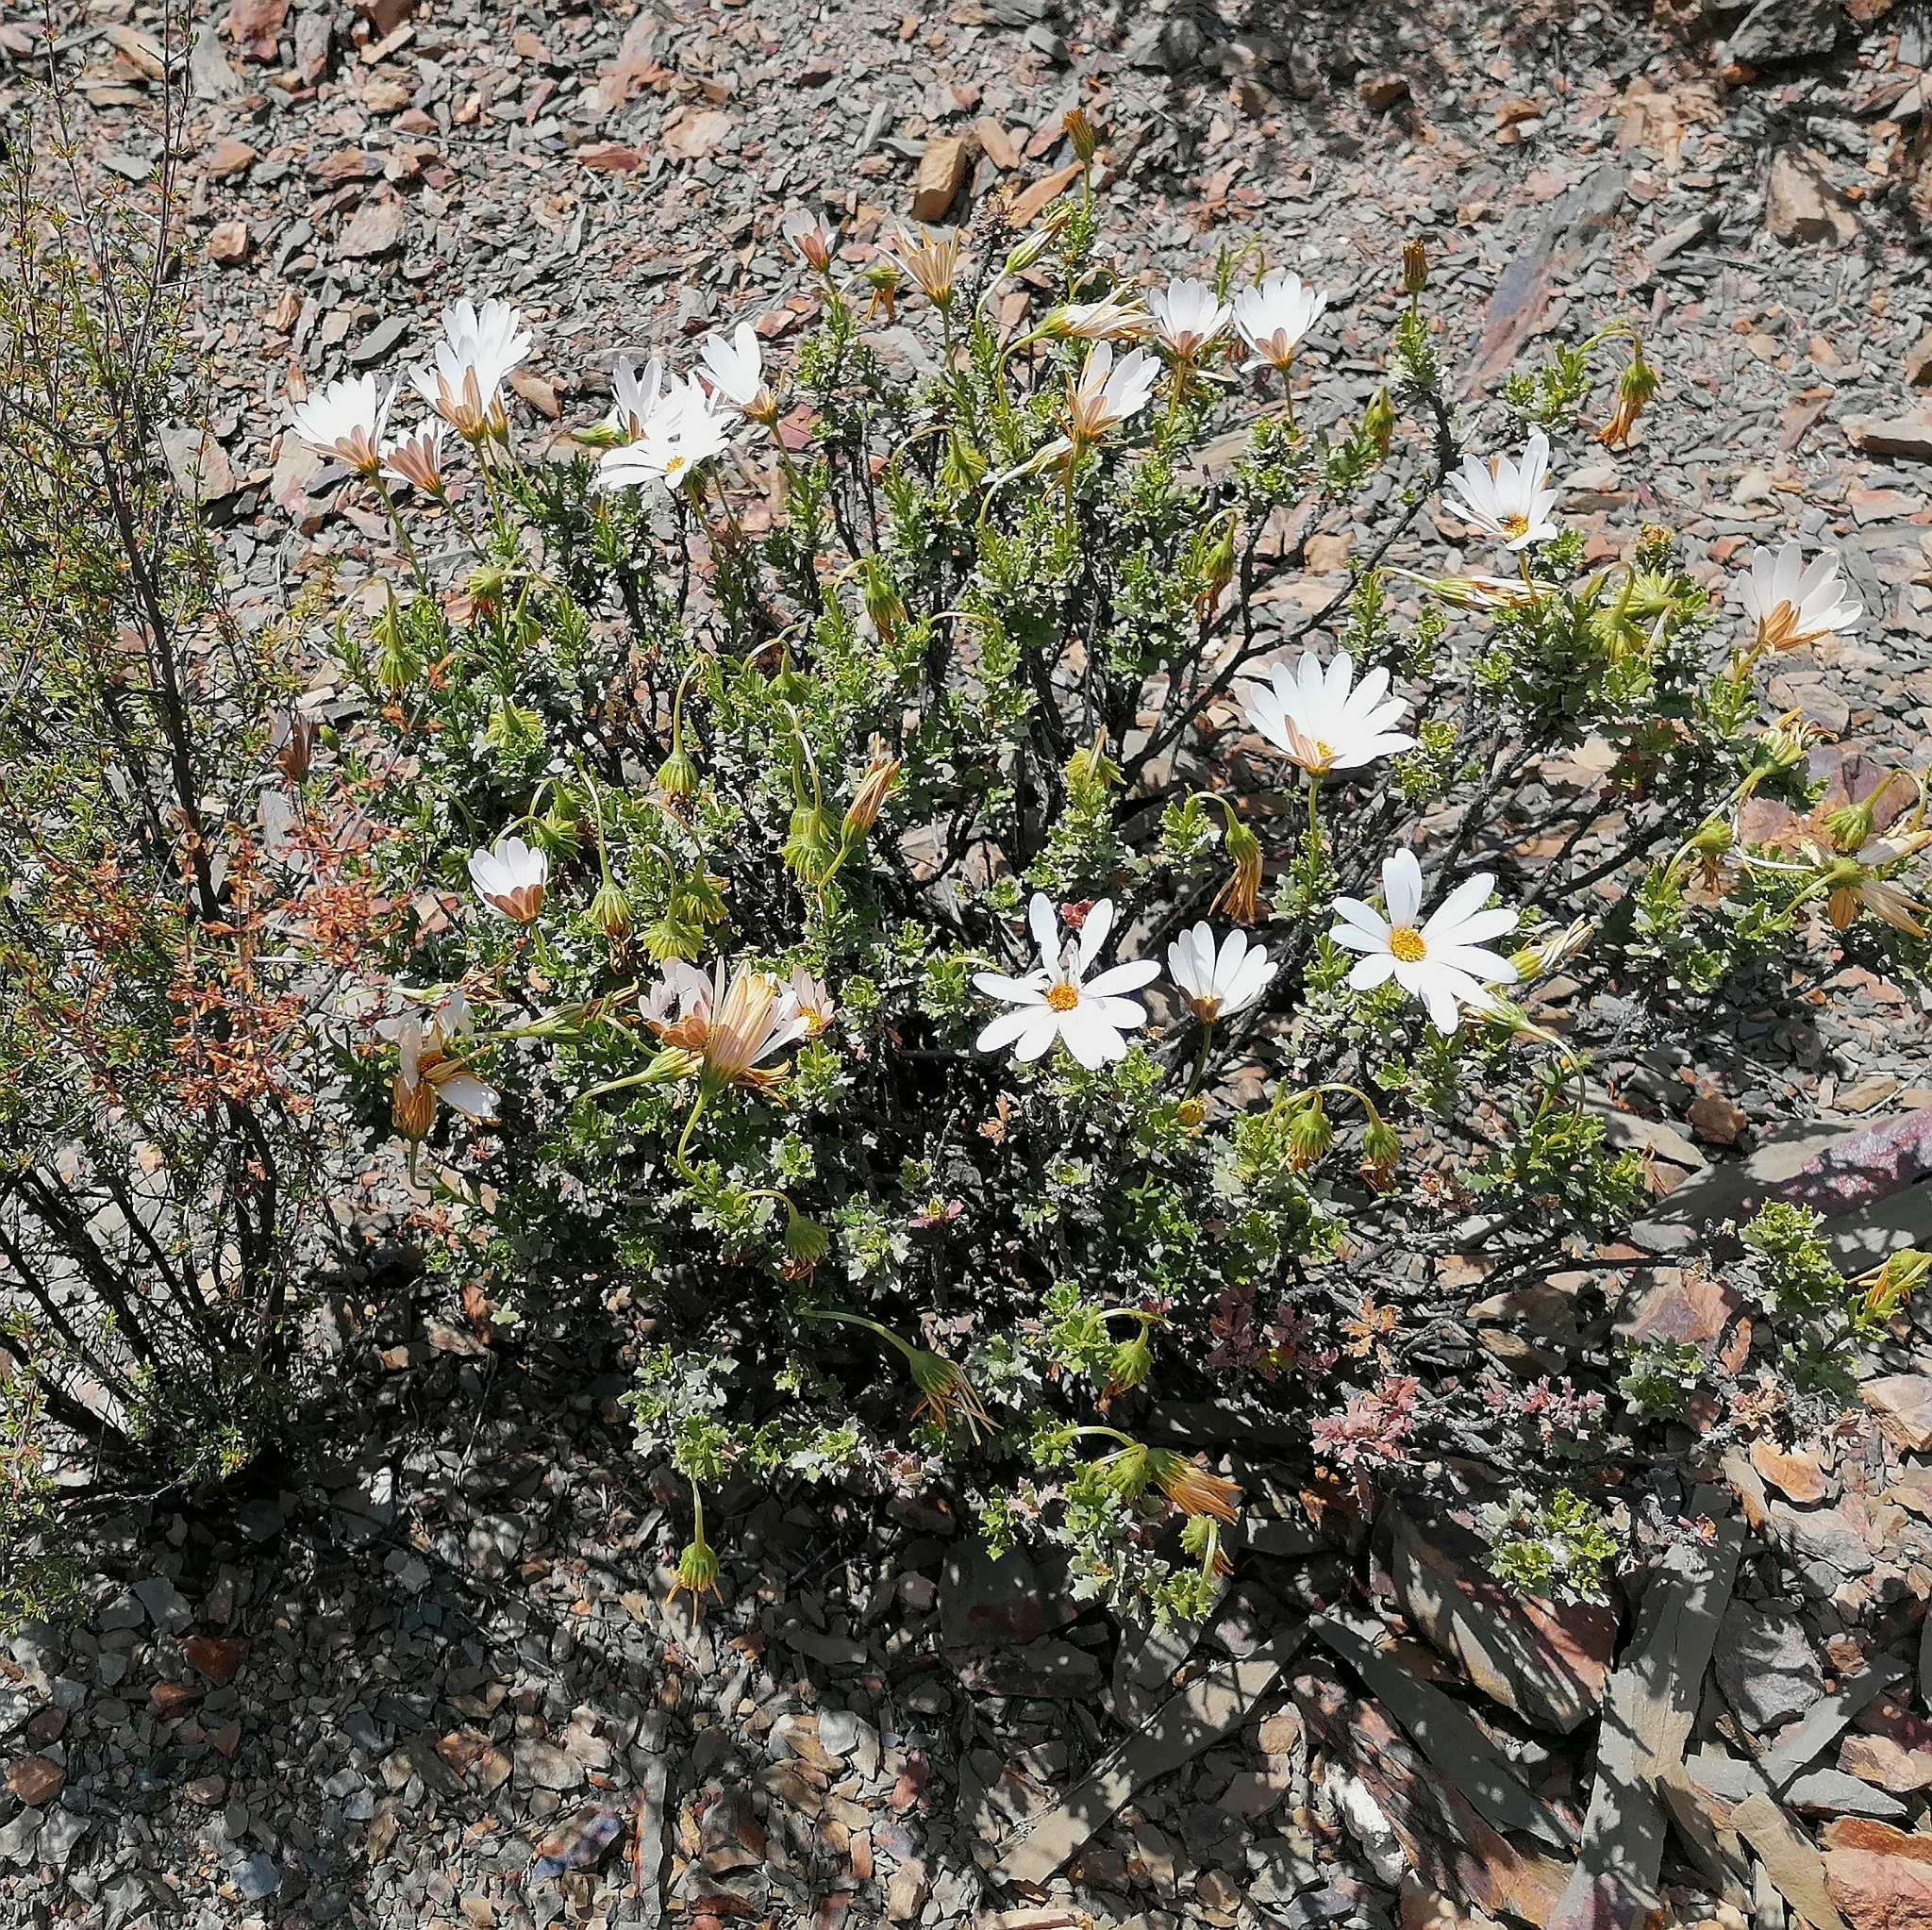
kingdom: Plantae
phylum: Tracheophyta
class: Magnoliopsida
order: Asterales
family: Asteraceae
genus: Dimorphotheca
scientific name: Dimorphotheca cuneata
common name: Daisy
